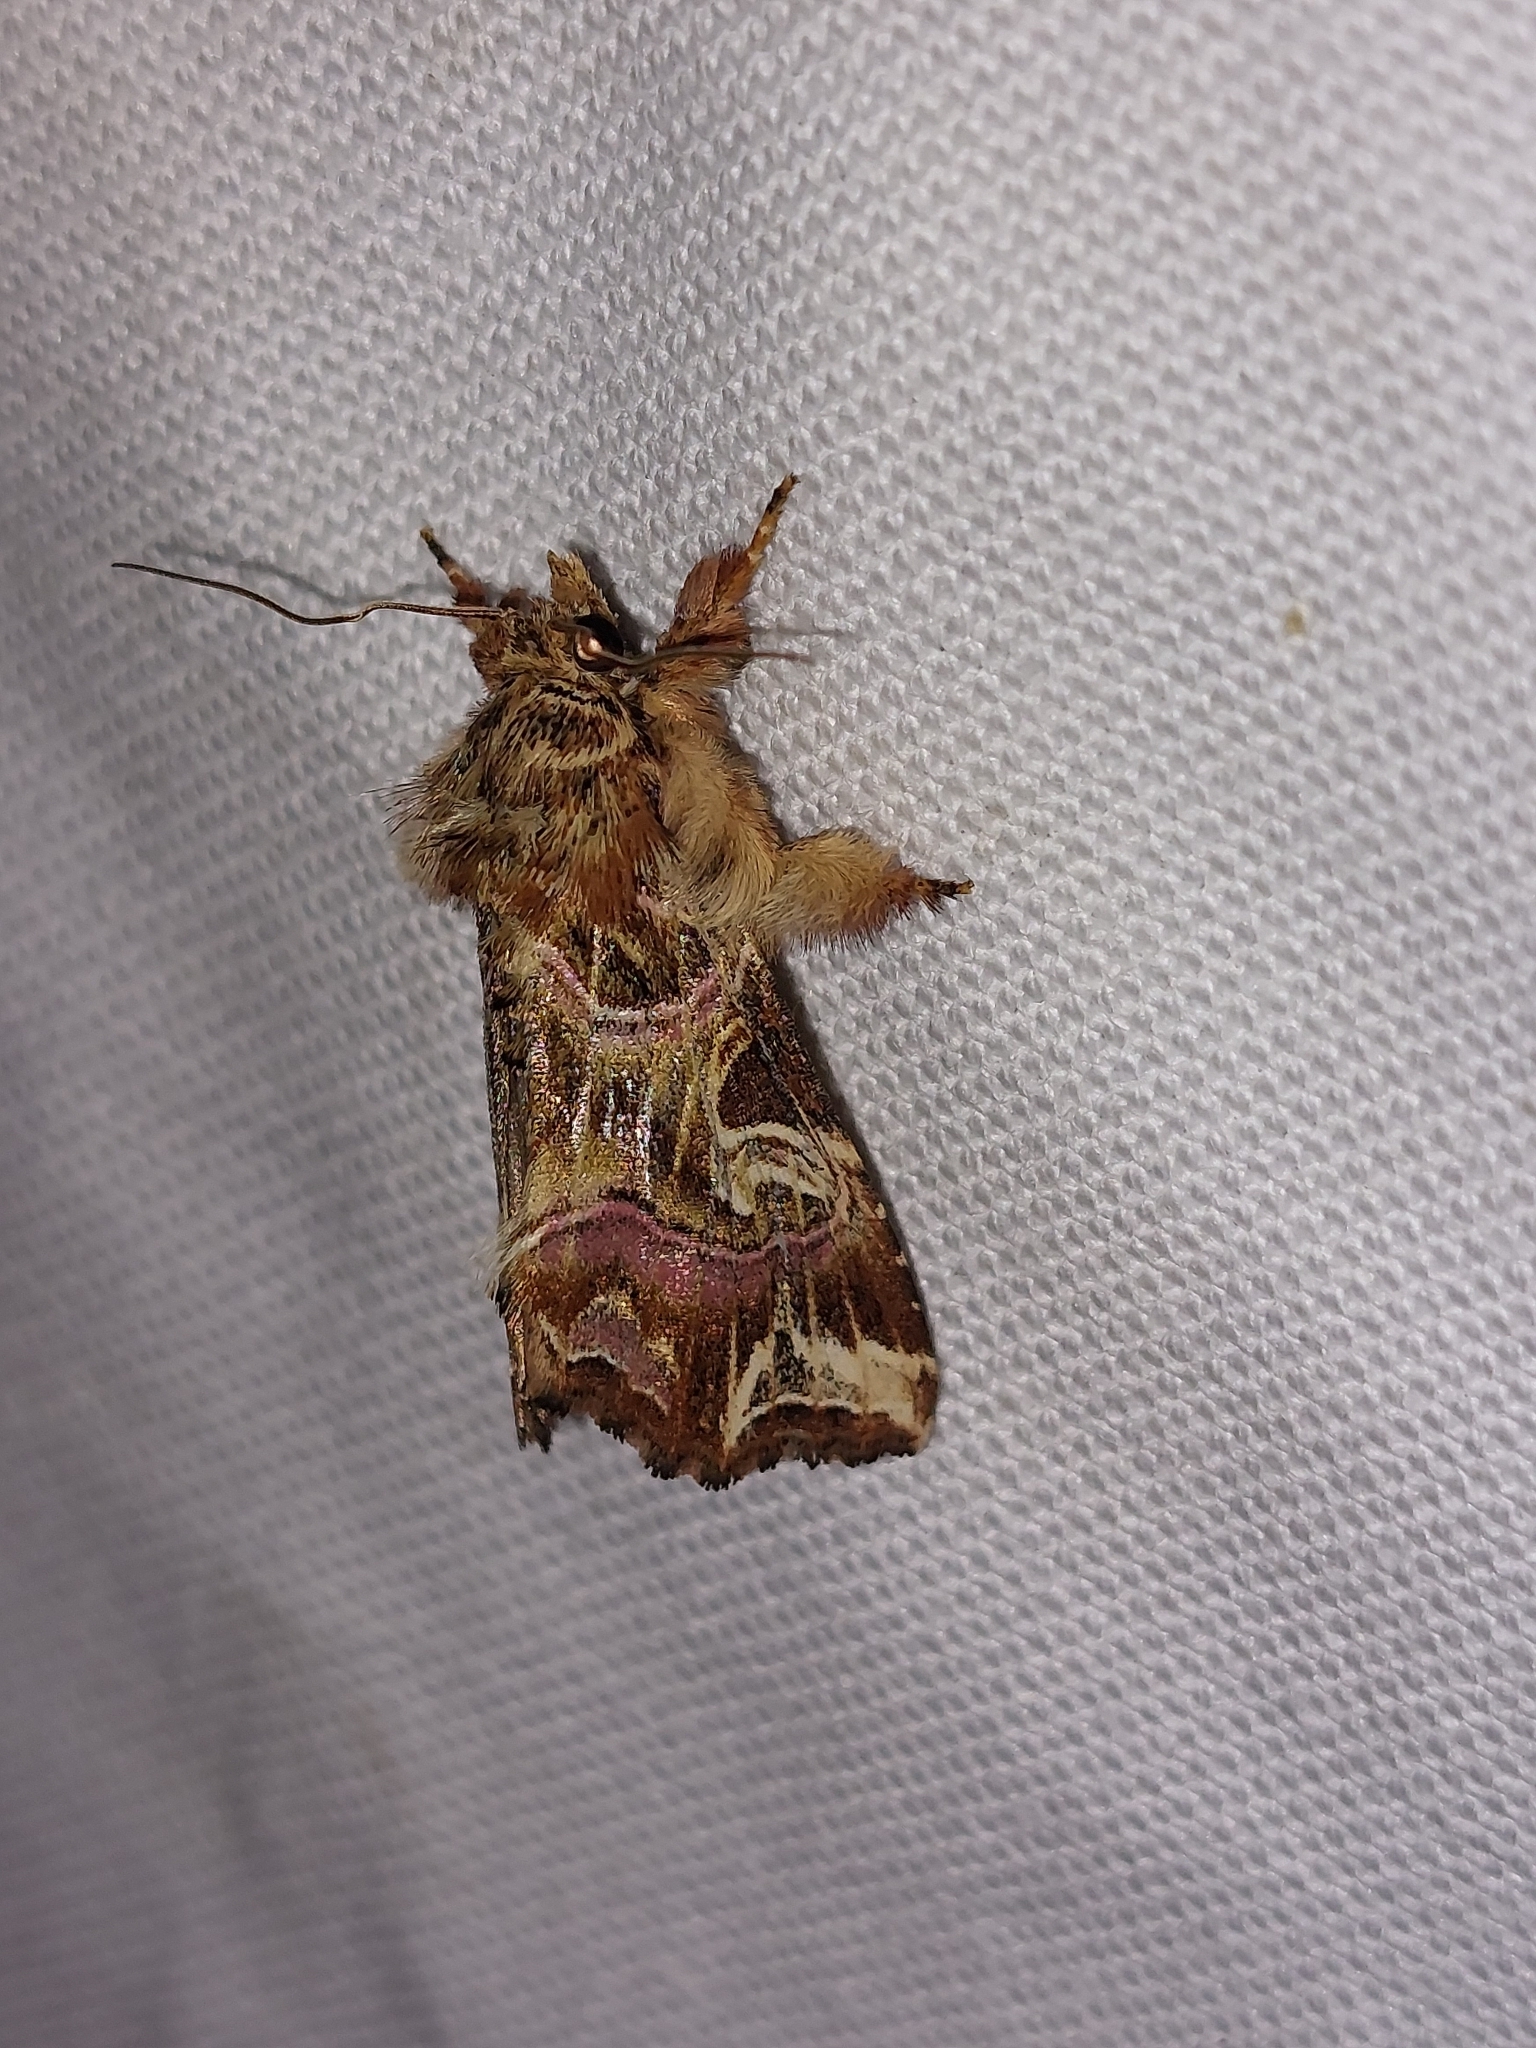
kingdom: Animalia
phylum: Arthropoda
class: Insecta
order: Lepidoptera
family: Noctuidae
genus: Callopistria
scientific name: Callopistria juventina
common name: Latin
